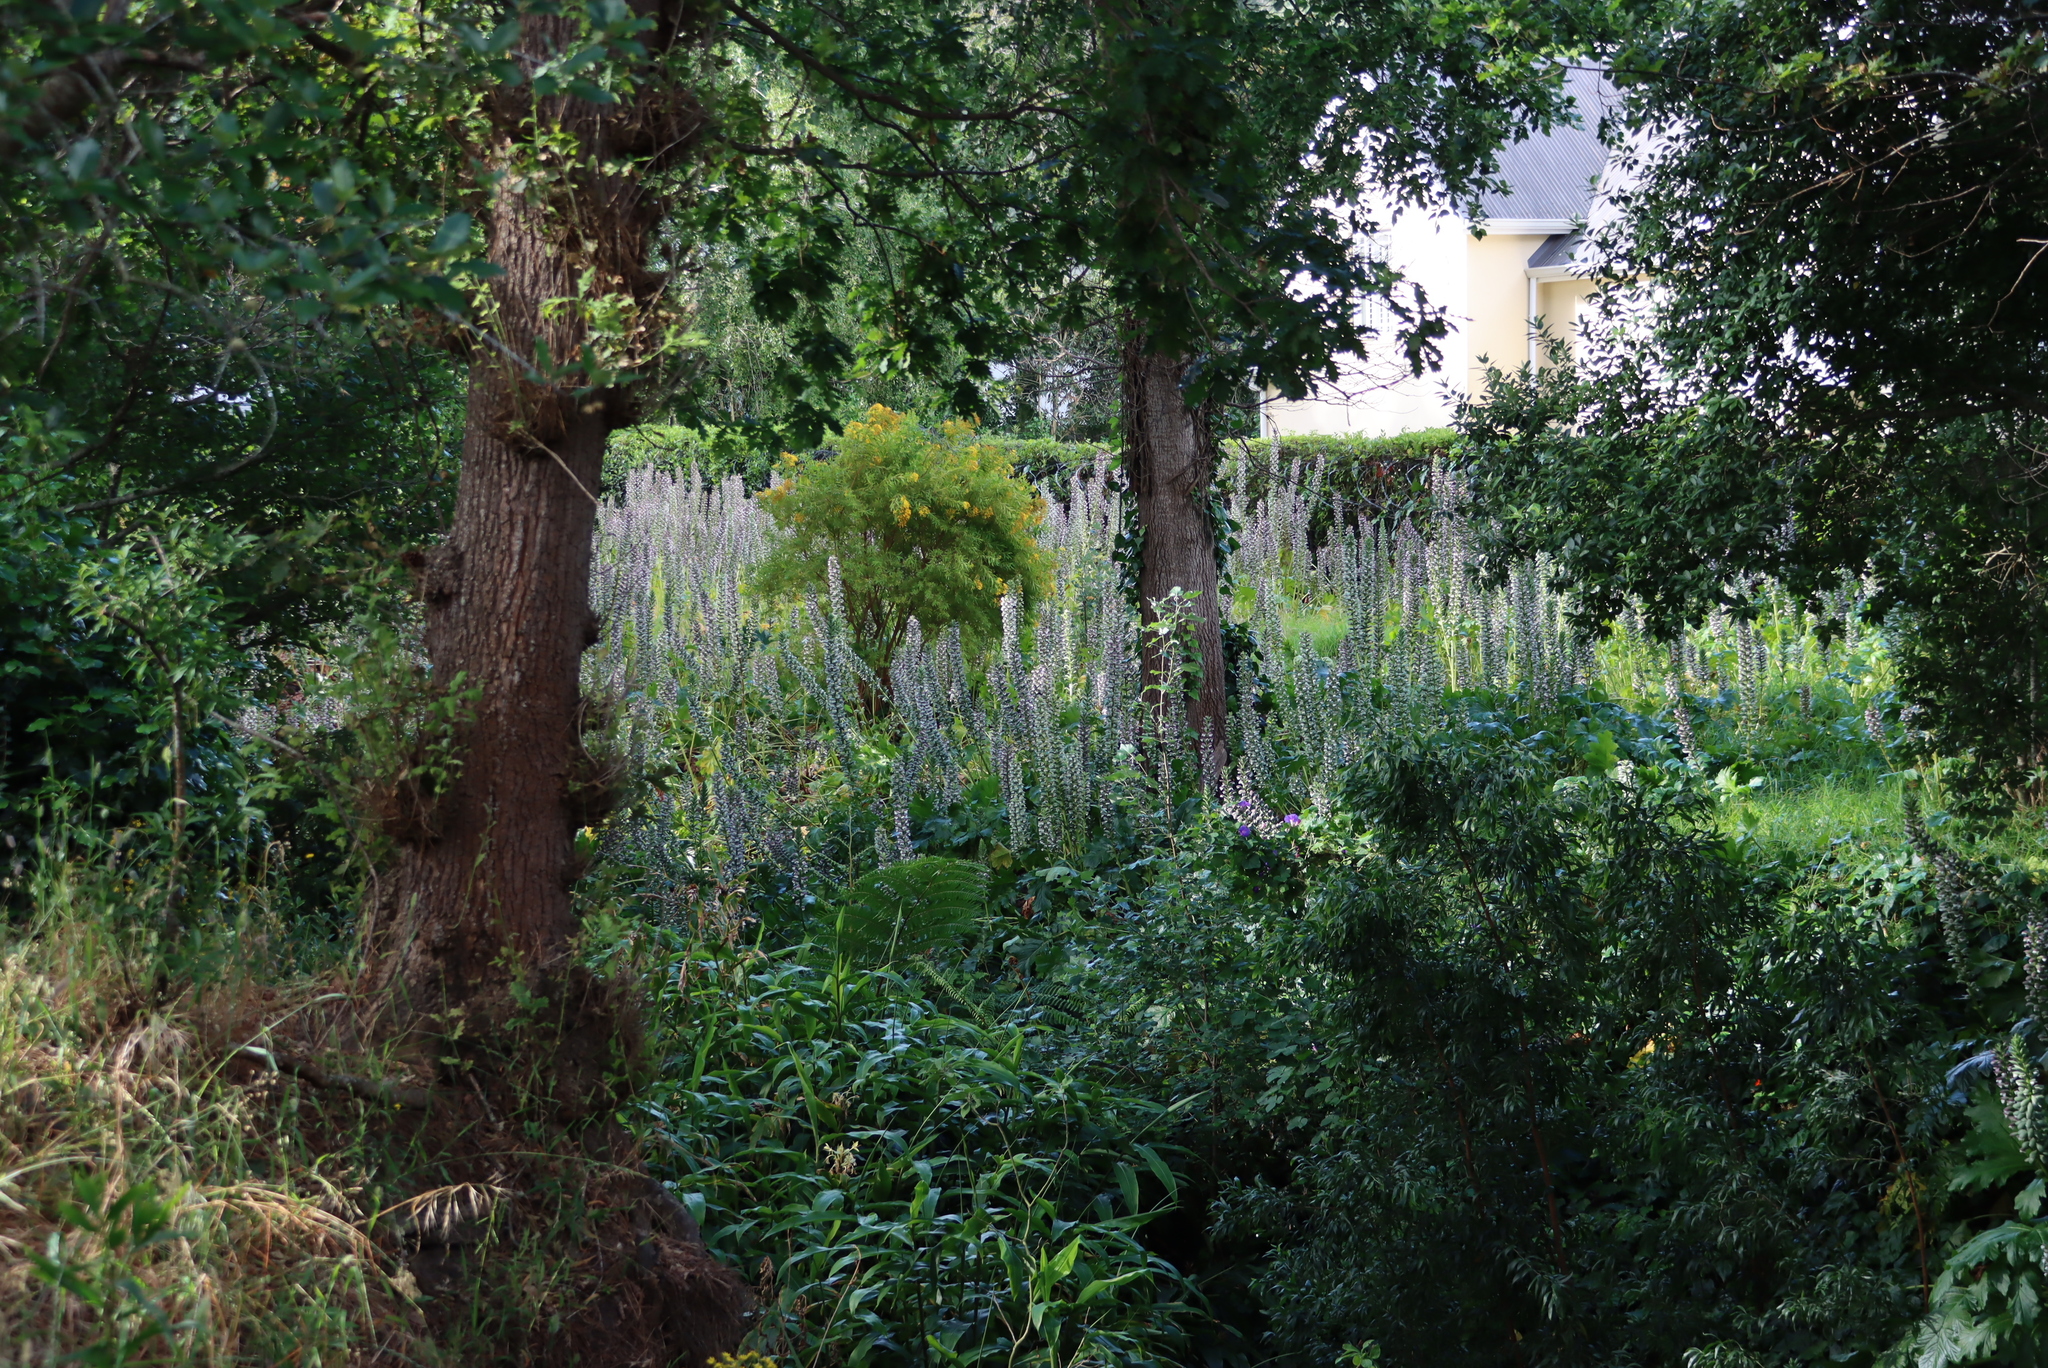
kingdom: Plantae
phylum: Tracheophyta
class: Magnoliopsida
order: Lamiales
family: Acanthaceae
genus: Acanthus
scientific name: Acanthus mollis
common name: Bear's-breech
